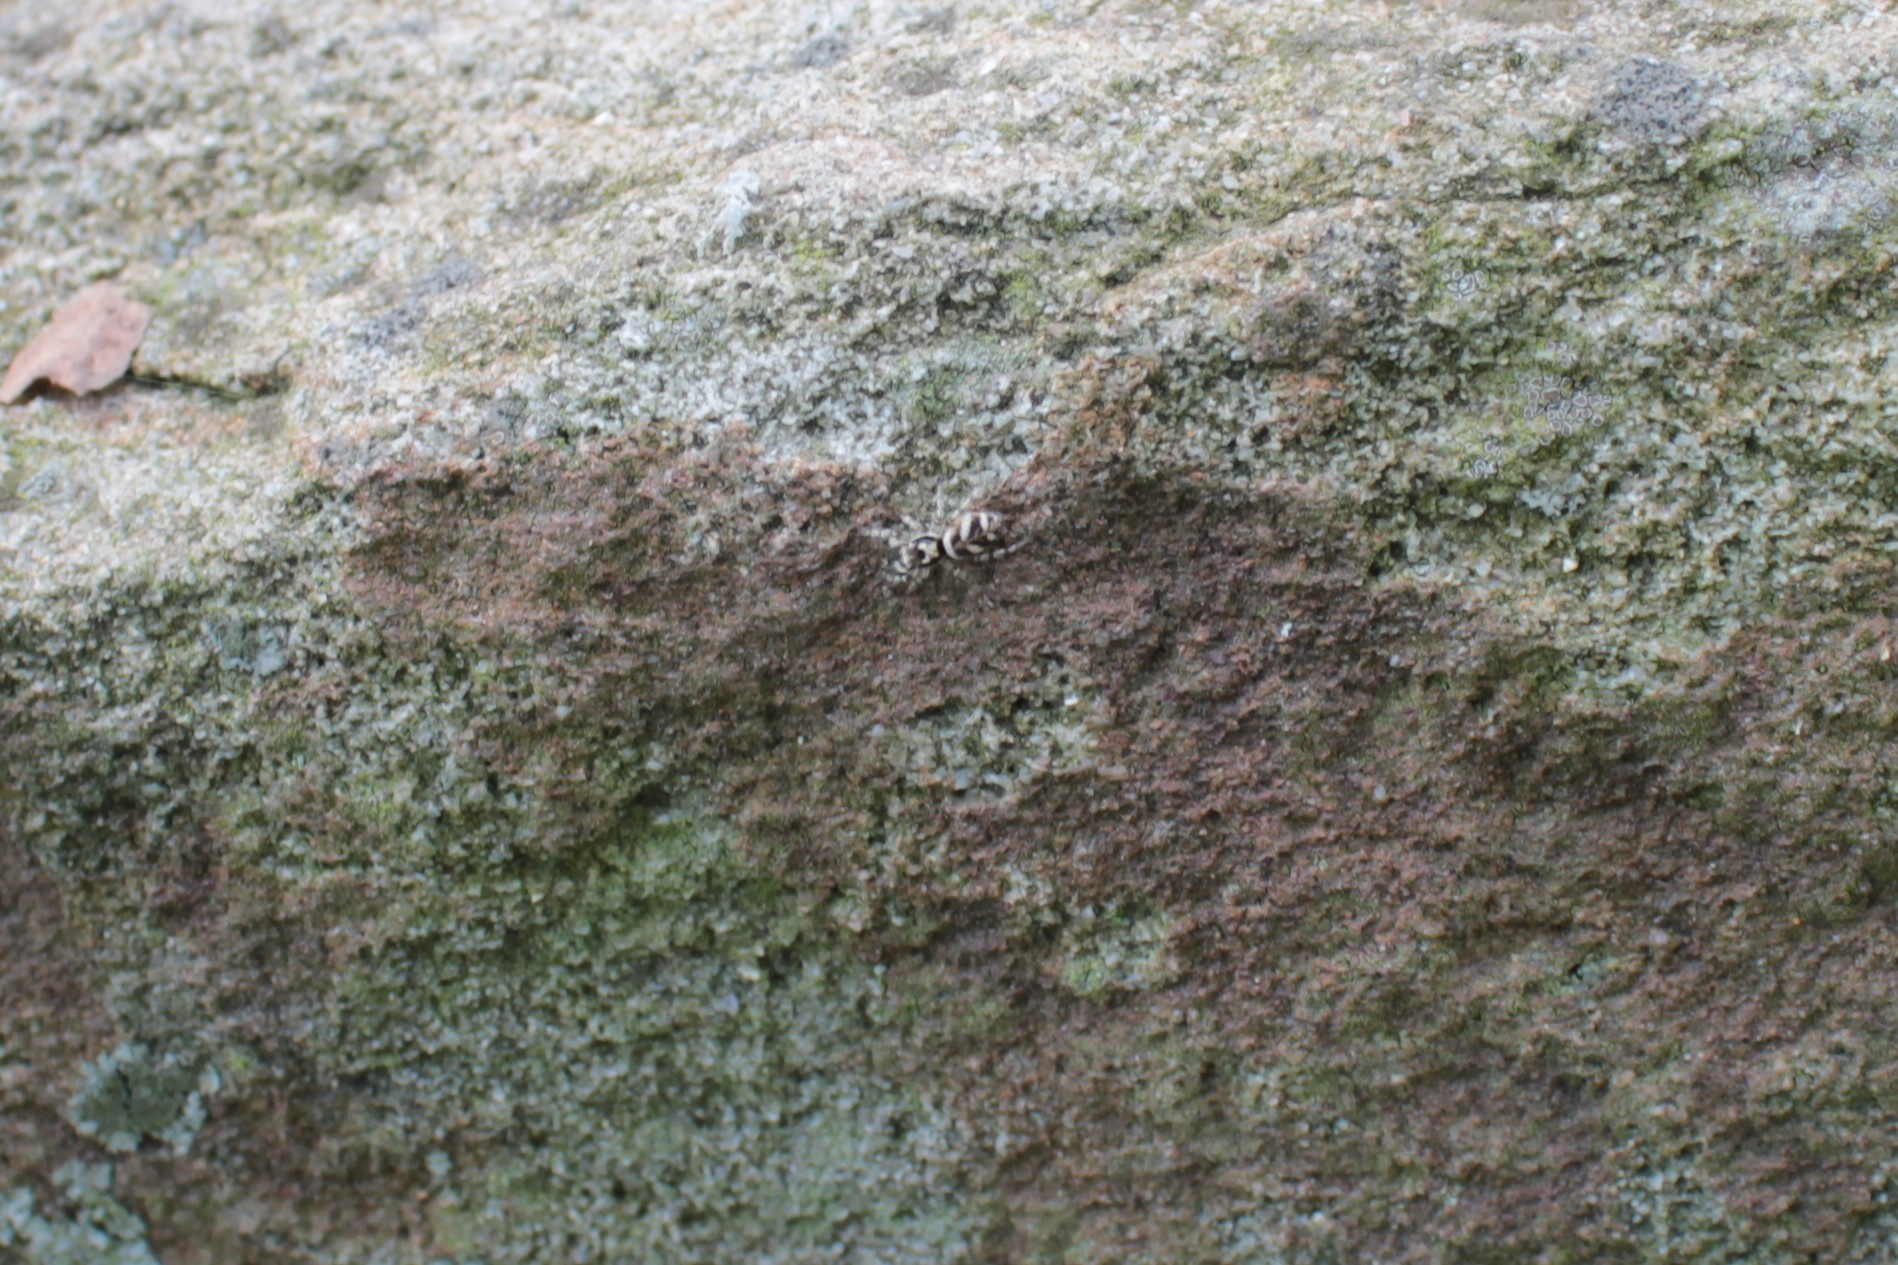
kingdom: Animalia
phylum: Arthropoda
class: Arachnida
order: Araneae
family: Salticidae
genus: Salticus
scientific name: Salticus scenicus
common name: Zebra jumper
